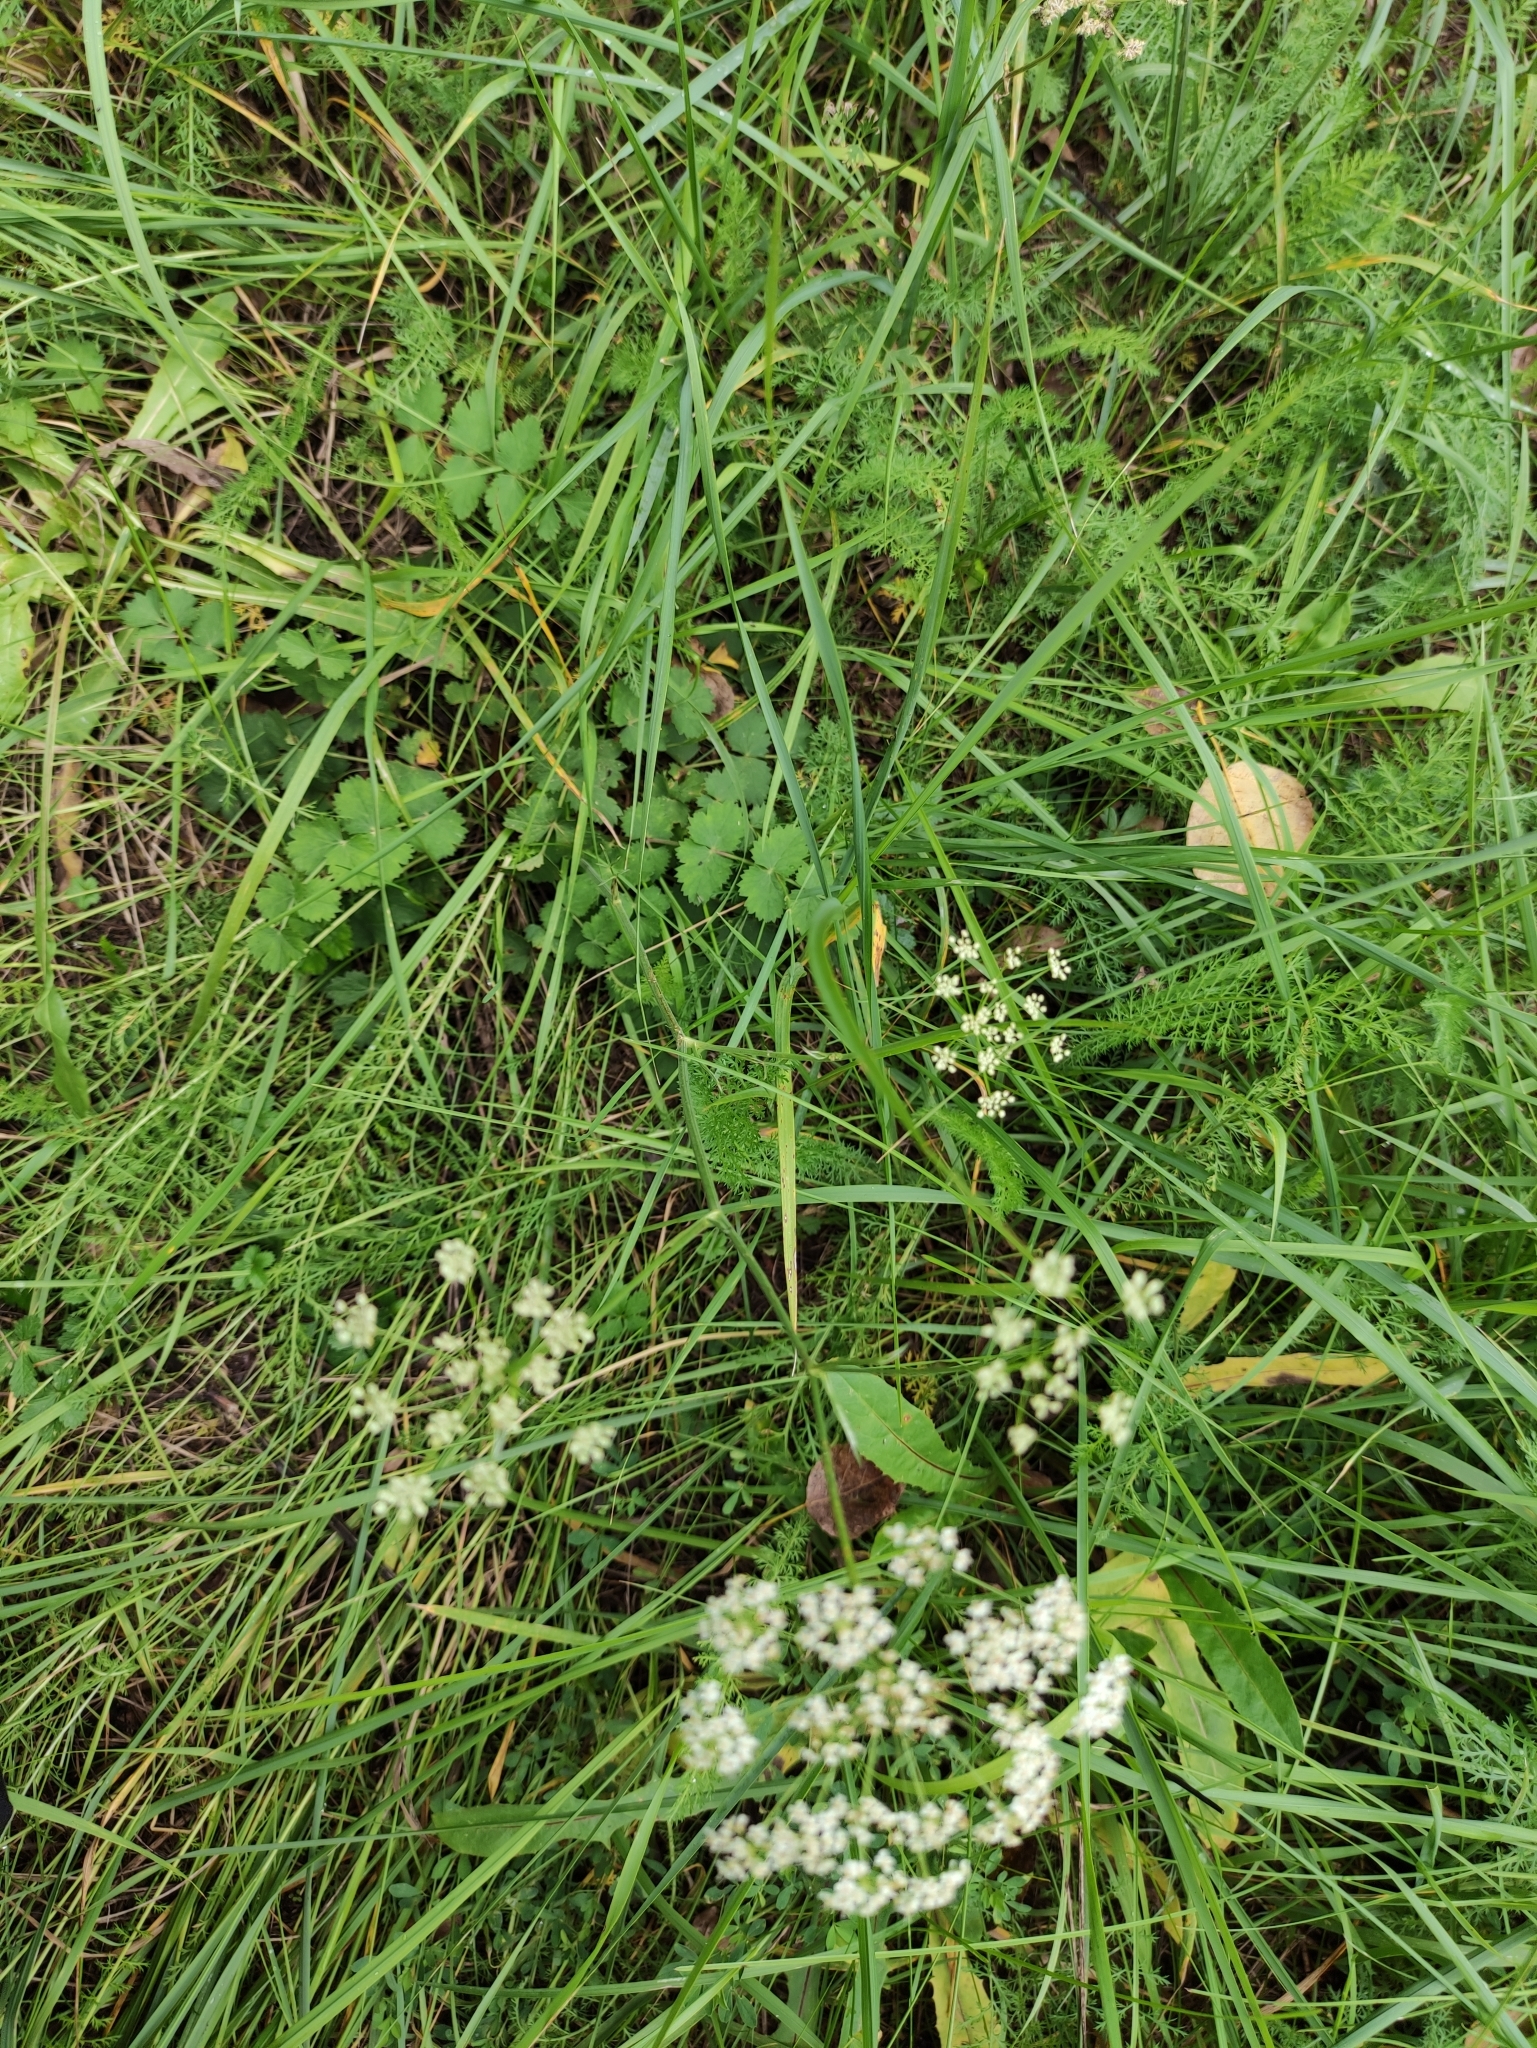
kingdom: Plantae
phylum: Tracheophyta
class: Magnoliopsida
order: Apiales
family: Apiaceae
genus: Pimpinella
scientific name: Pimpinella saxifraga
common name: Burnet-saxifrage
